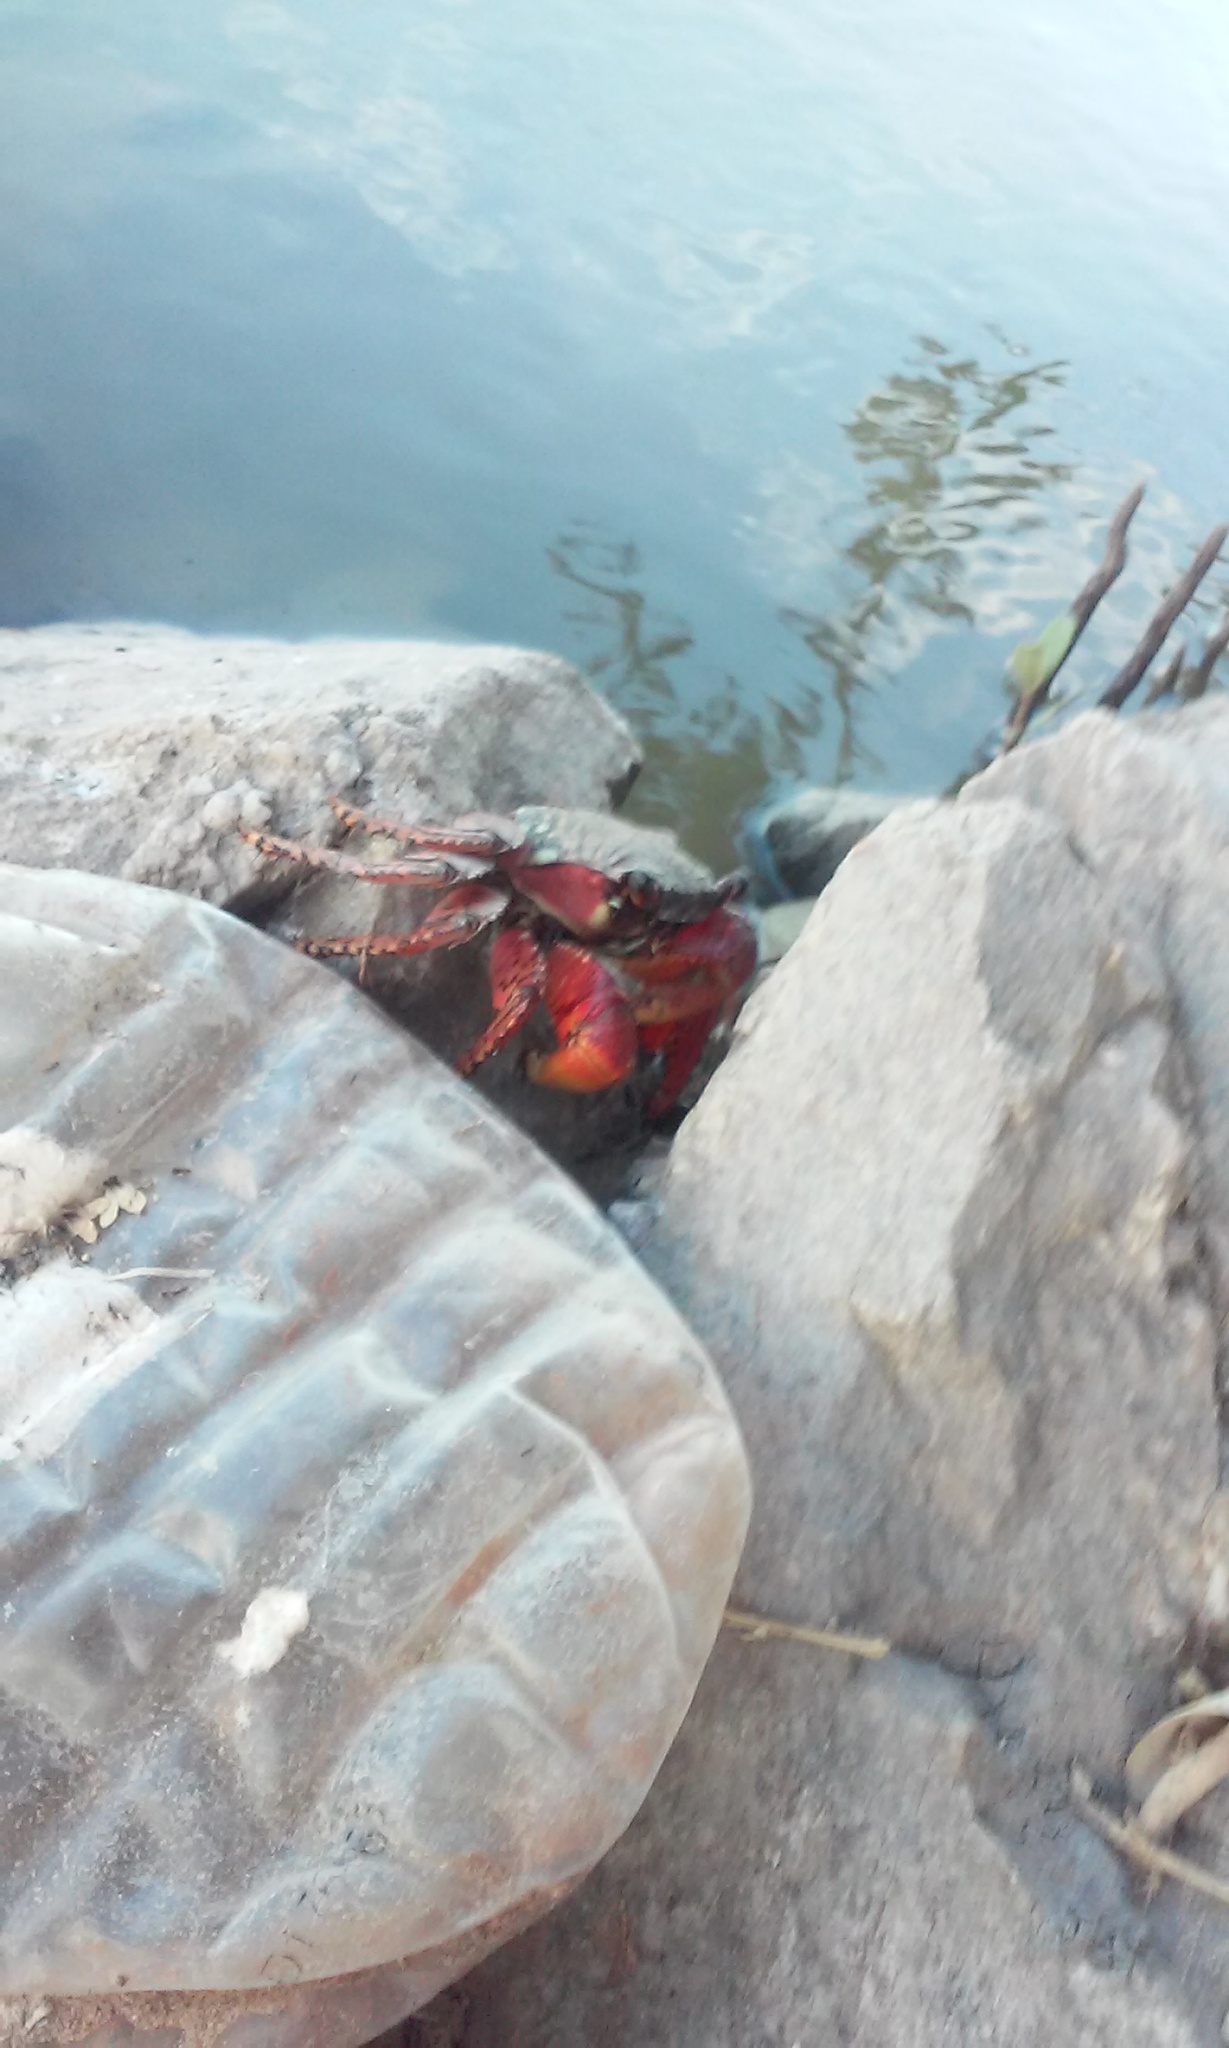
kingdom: Animalia
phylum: Arthropoda
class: Malacostraca
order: Decapoda
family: Grapsidae
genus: Goniopsis
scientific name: Goniopsis pulchra
